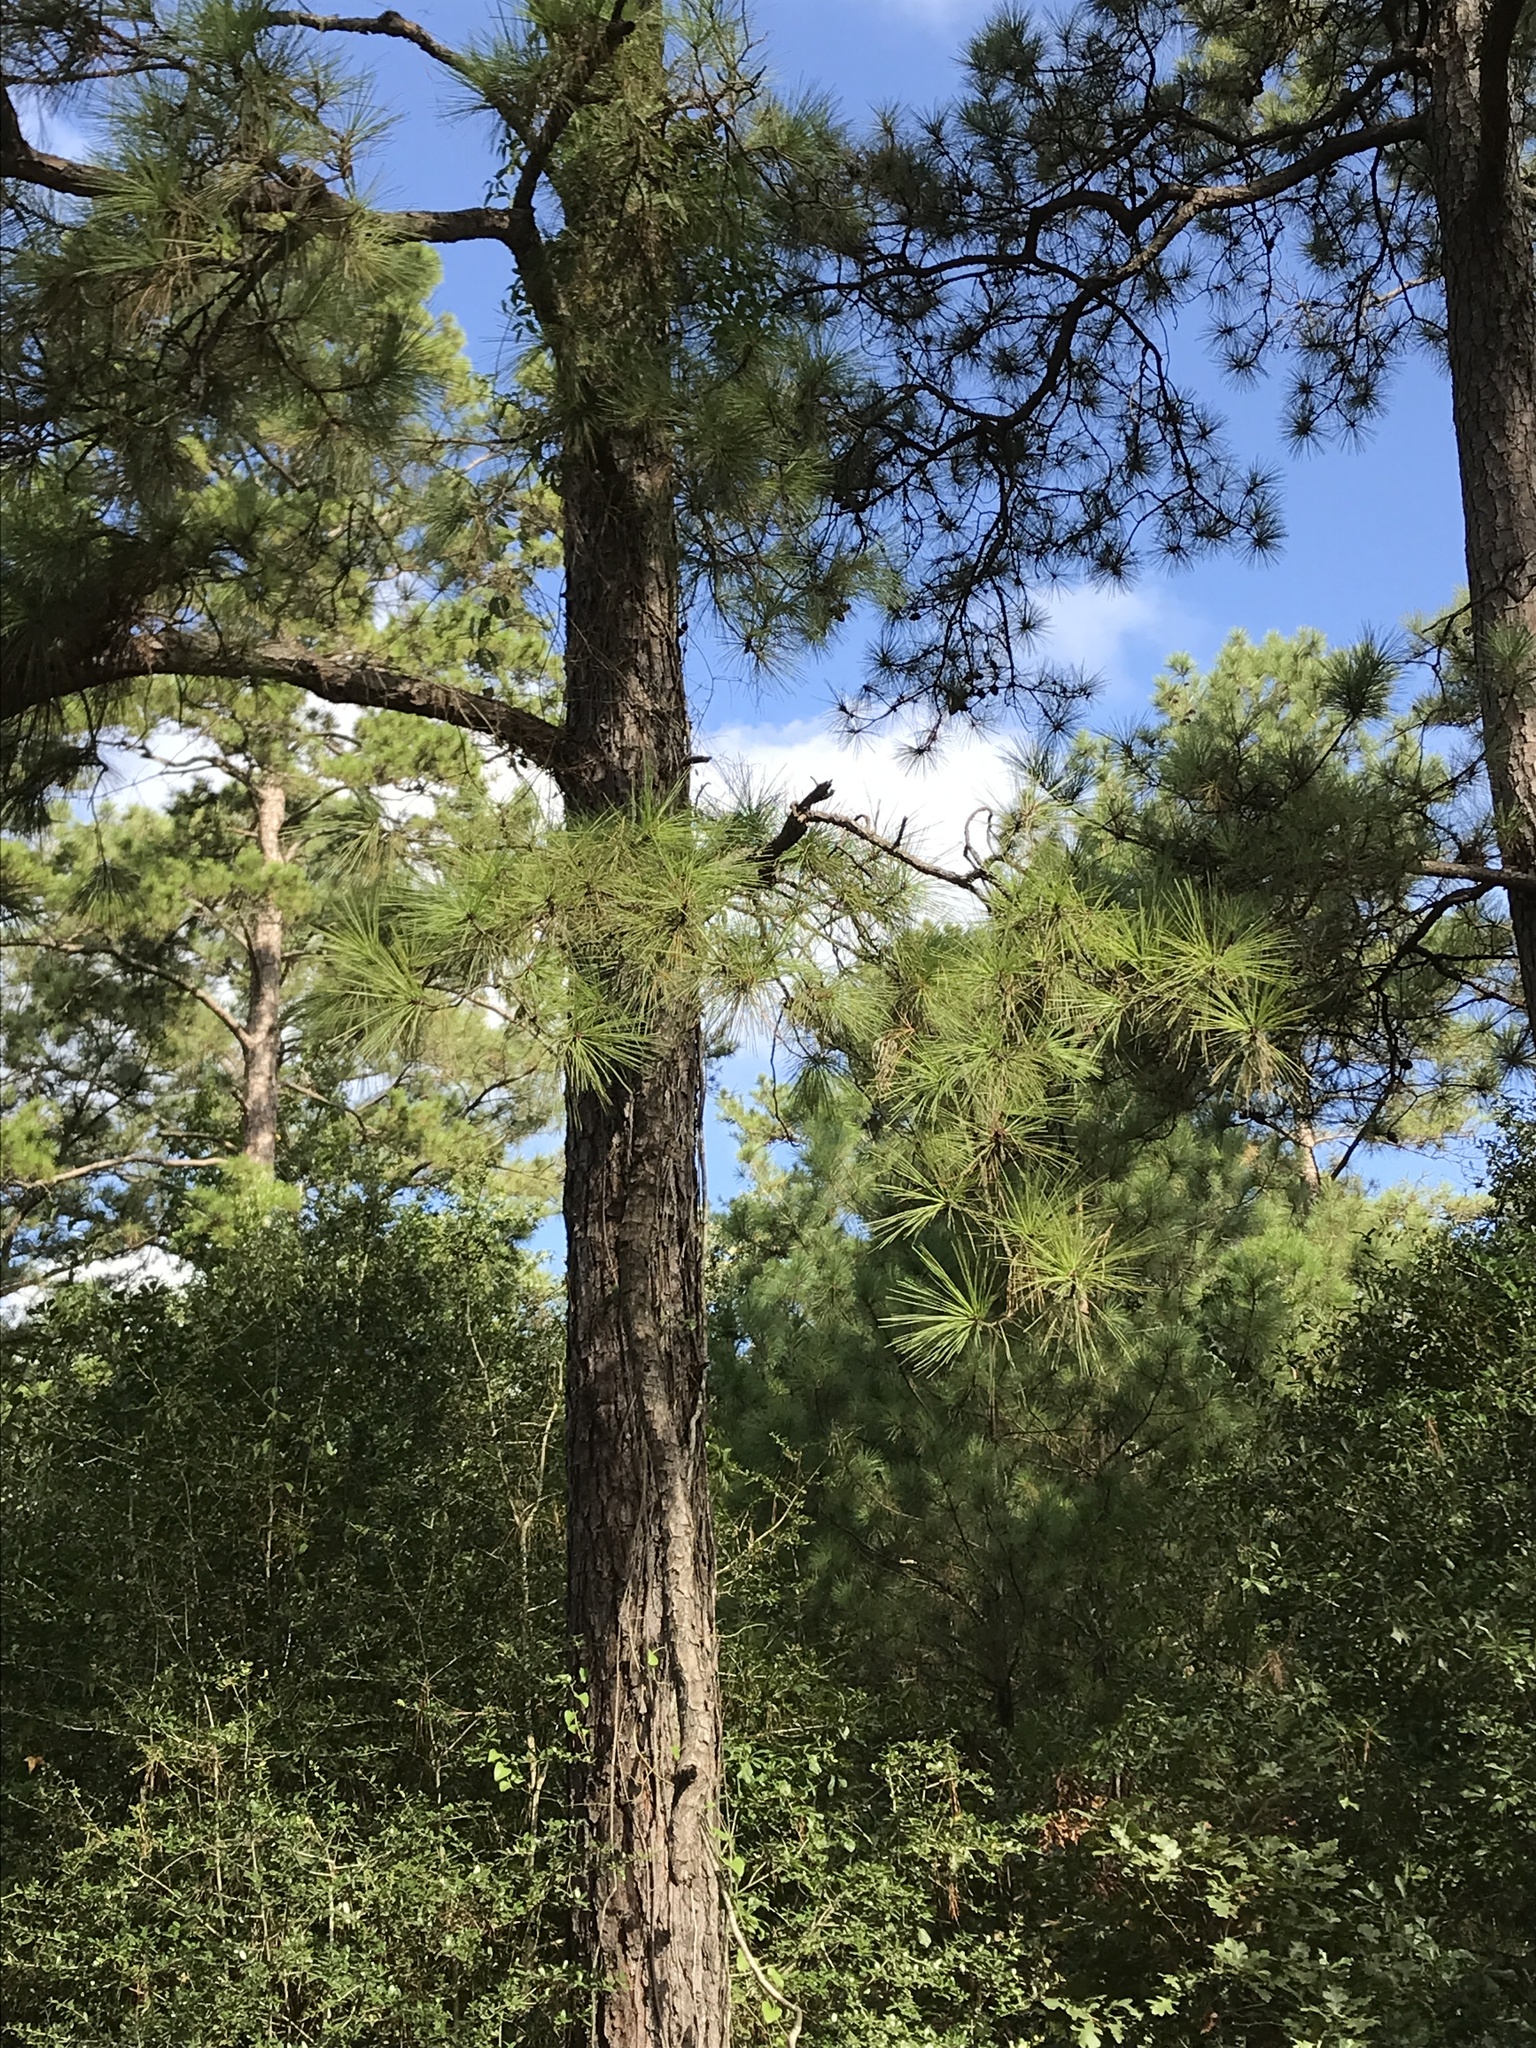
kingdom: Plantae
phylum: Tracheophyta
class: Pinopsida
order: Pinales
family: Pinaceae
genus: Pinus
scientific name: Pinus taeda
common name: Loblolly pine
